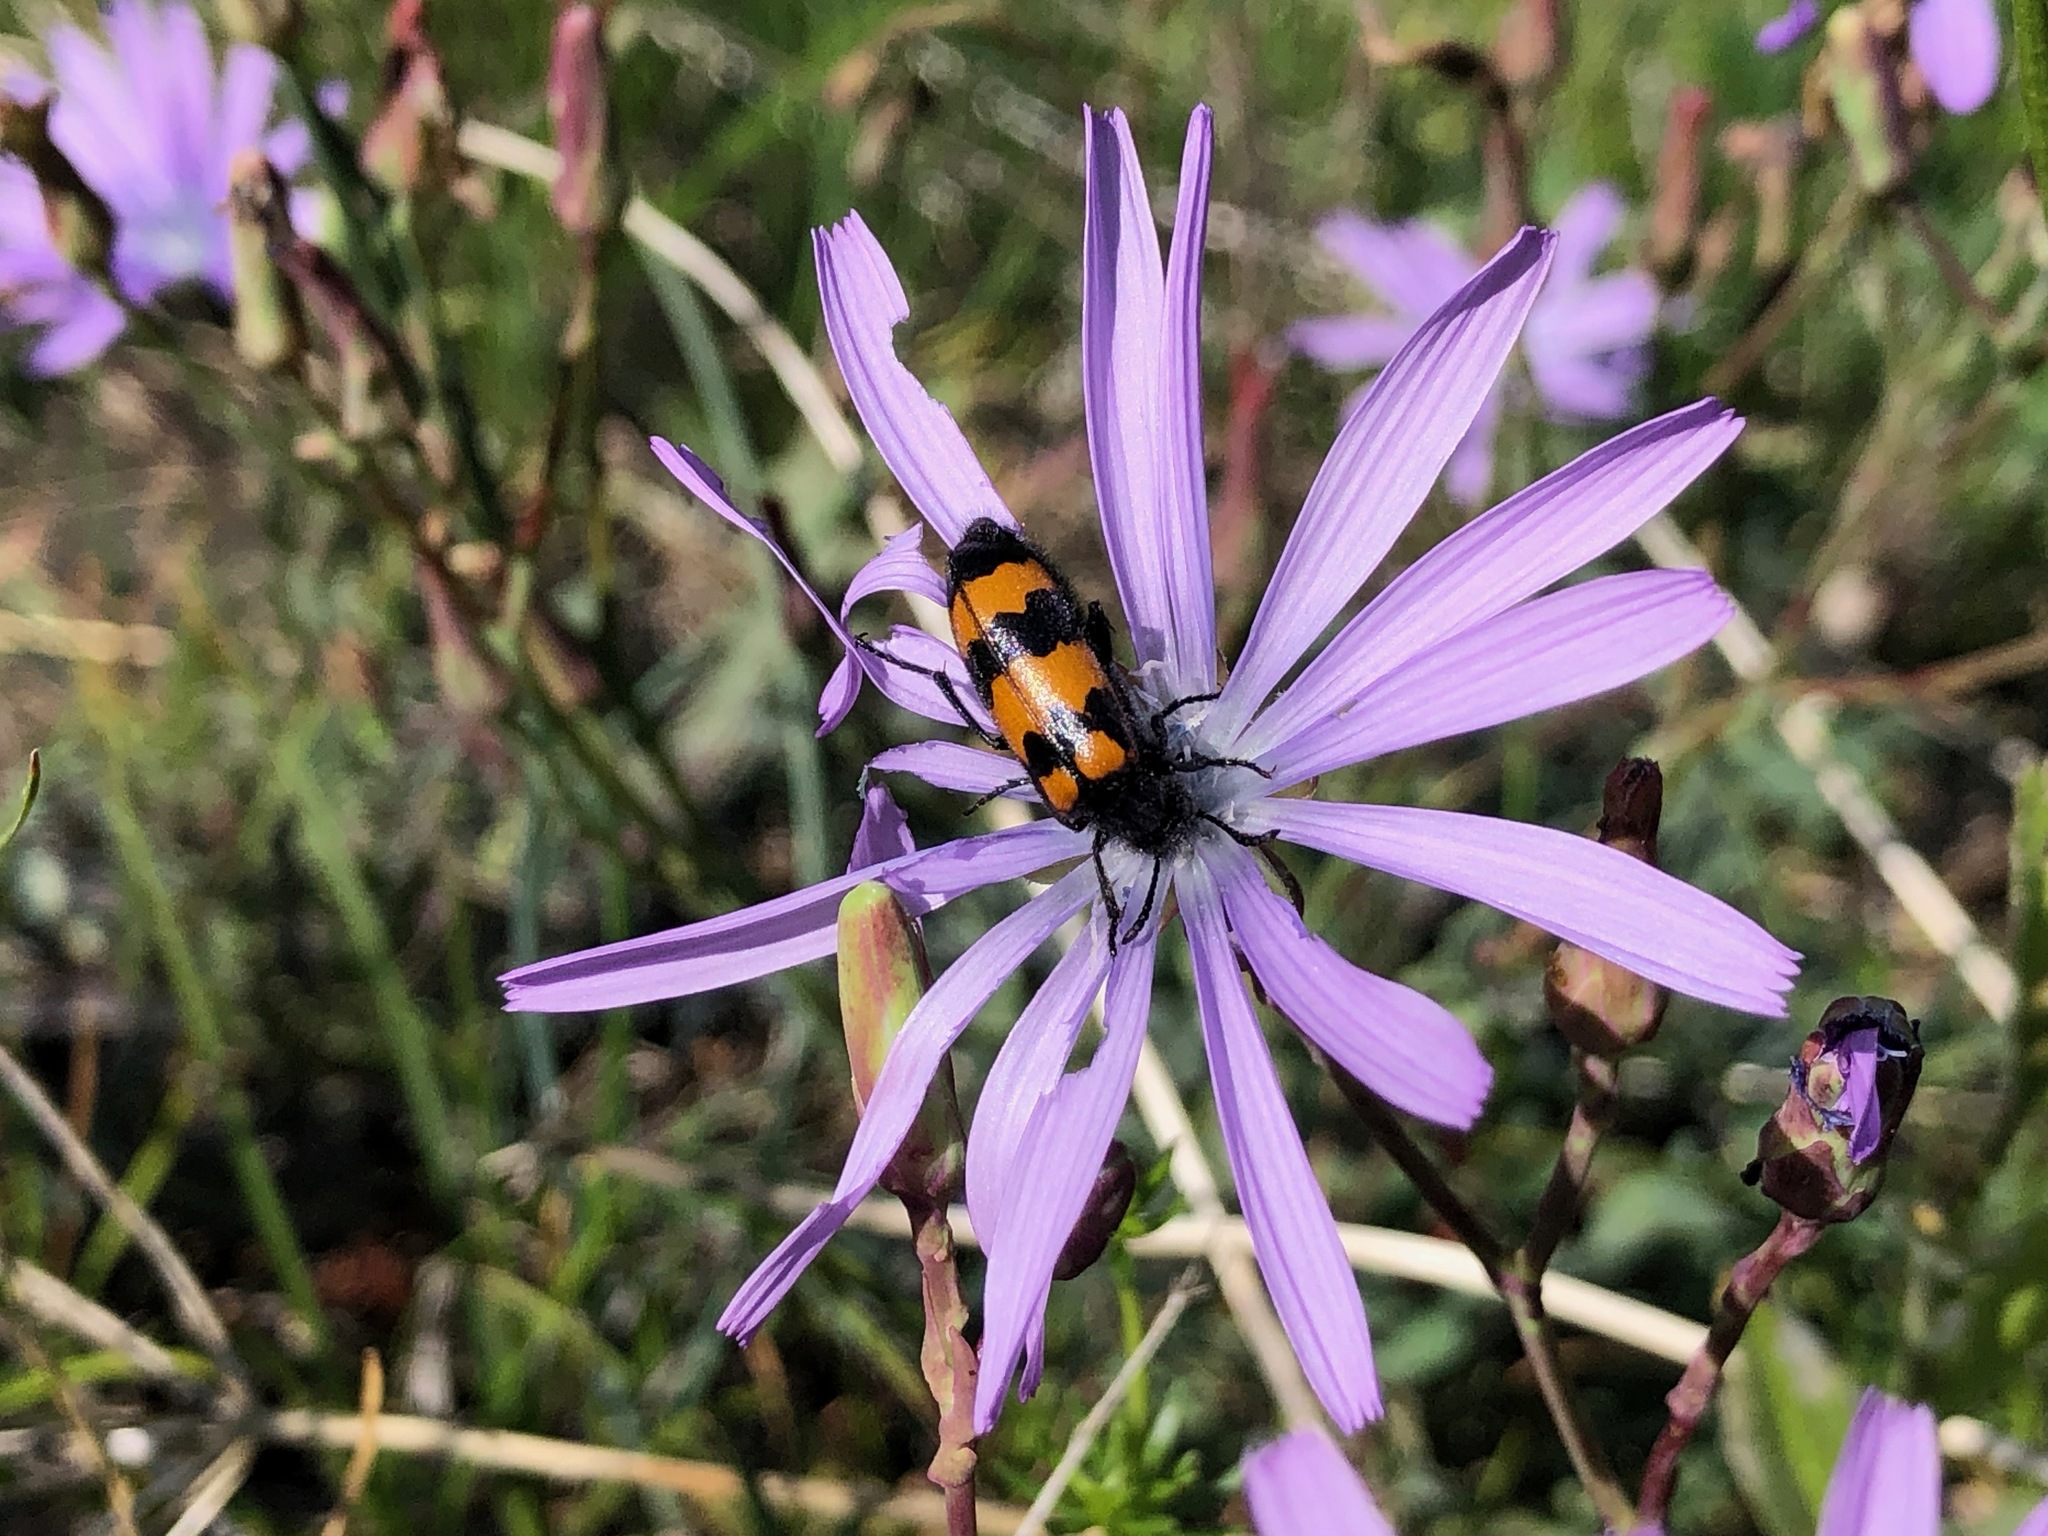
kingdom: Animalia
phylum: Arthropoda
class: Insecta
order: Coleoptera
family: Meloidae
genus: Mylabris
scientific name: Mylabris variabilis
